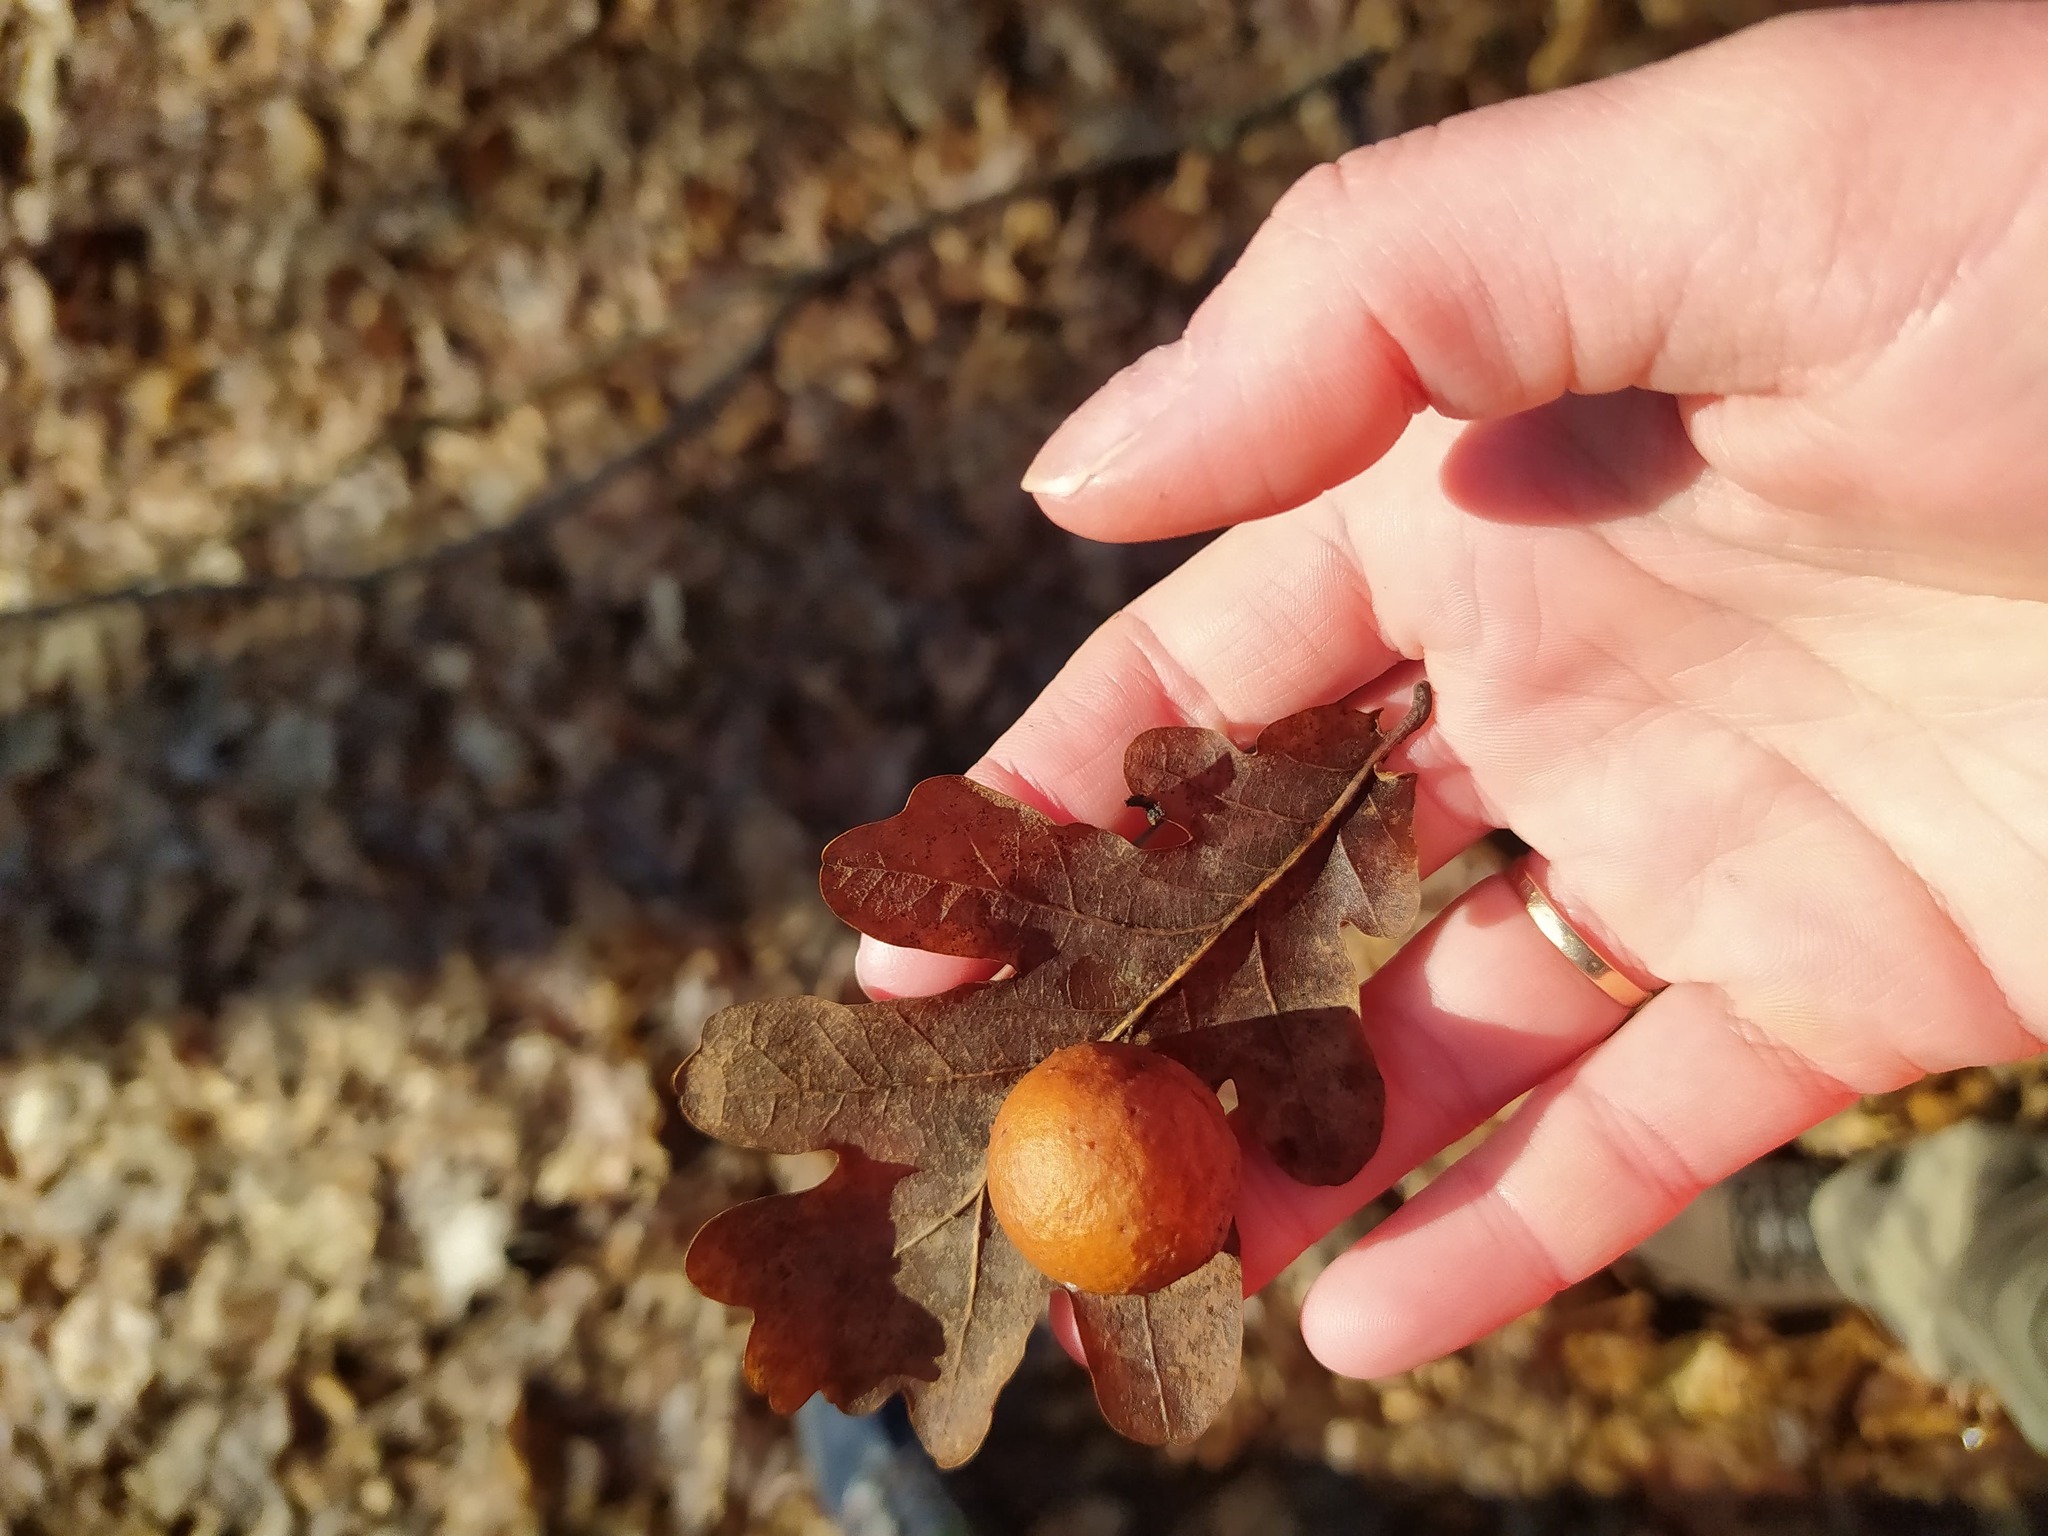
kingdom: Animalia
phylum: Arthropoda
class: Insecta
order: Hymenoptera
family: Cynipidae
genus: Cynips
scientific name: Cynips quercusfolii
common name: Cherry gall
